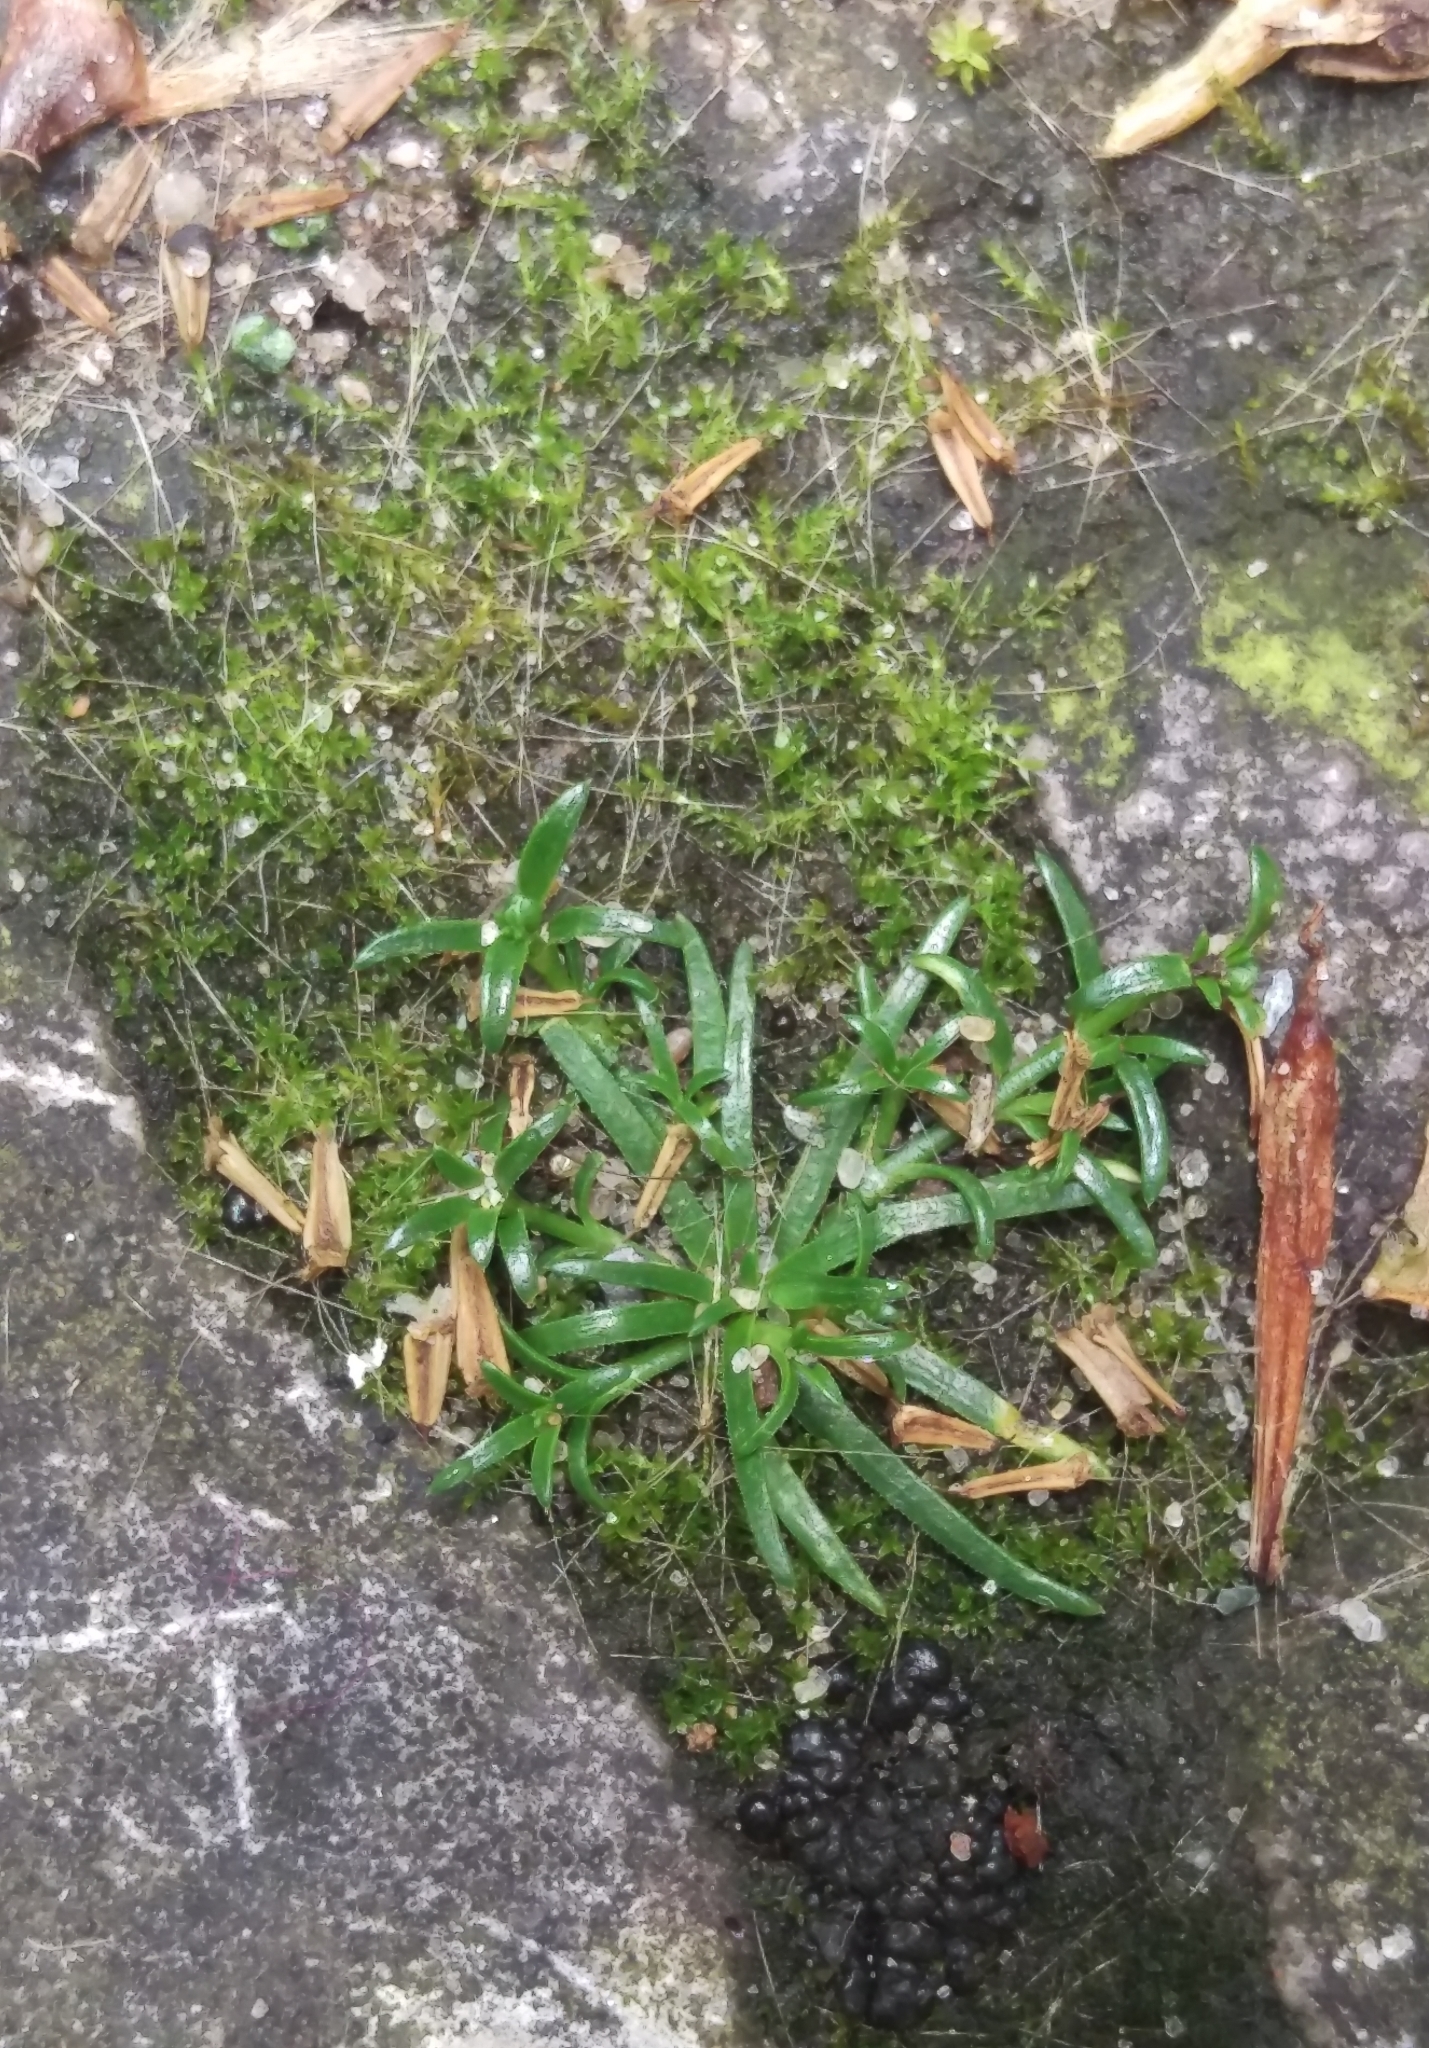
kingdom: Plantae
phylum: Tracheophyta
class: Magnoliopsida
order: Caryophyllales
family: Caryophyllaceae
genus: Sagina
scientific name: Sagina procumbens
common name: Procumbent pearlwort
